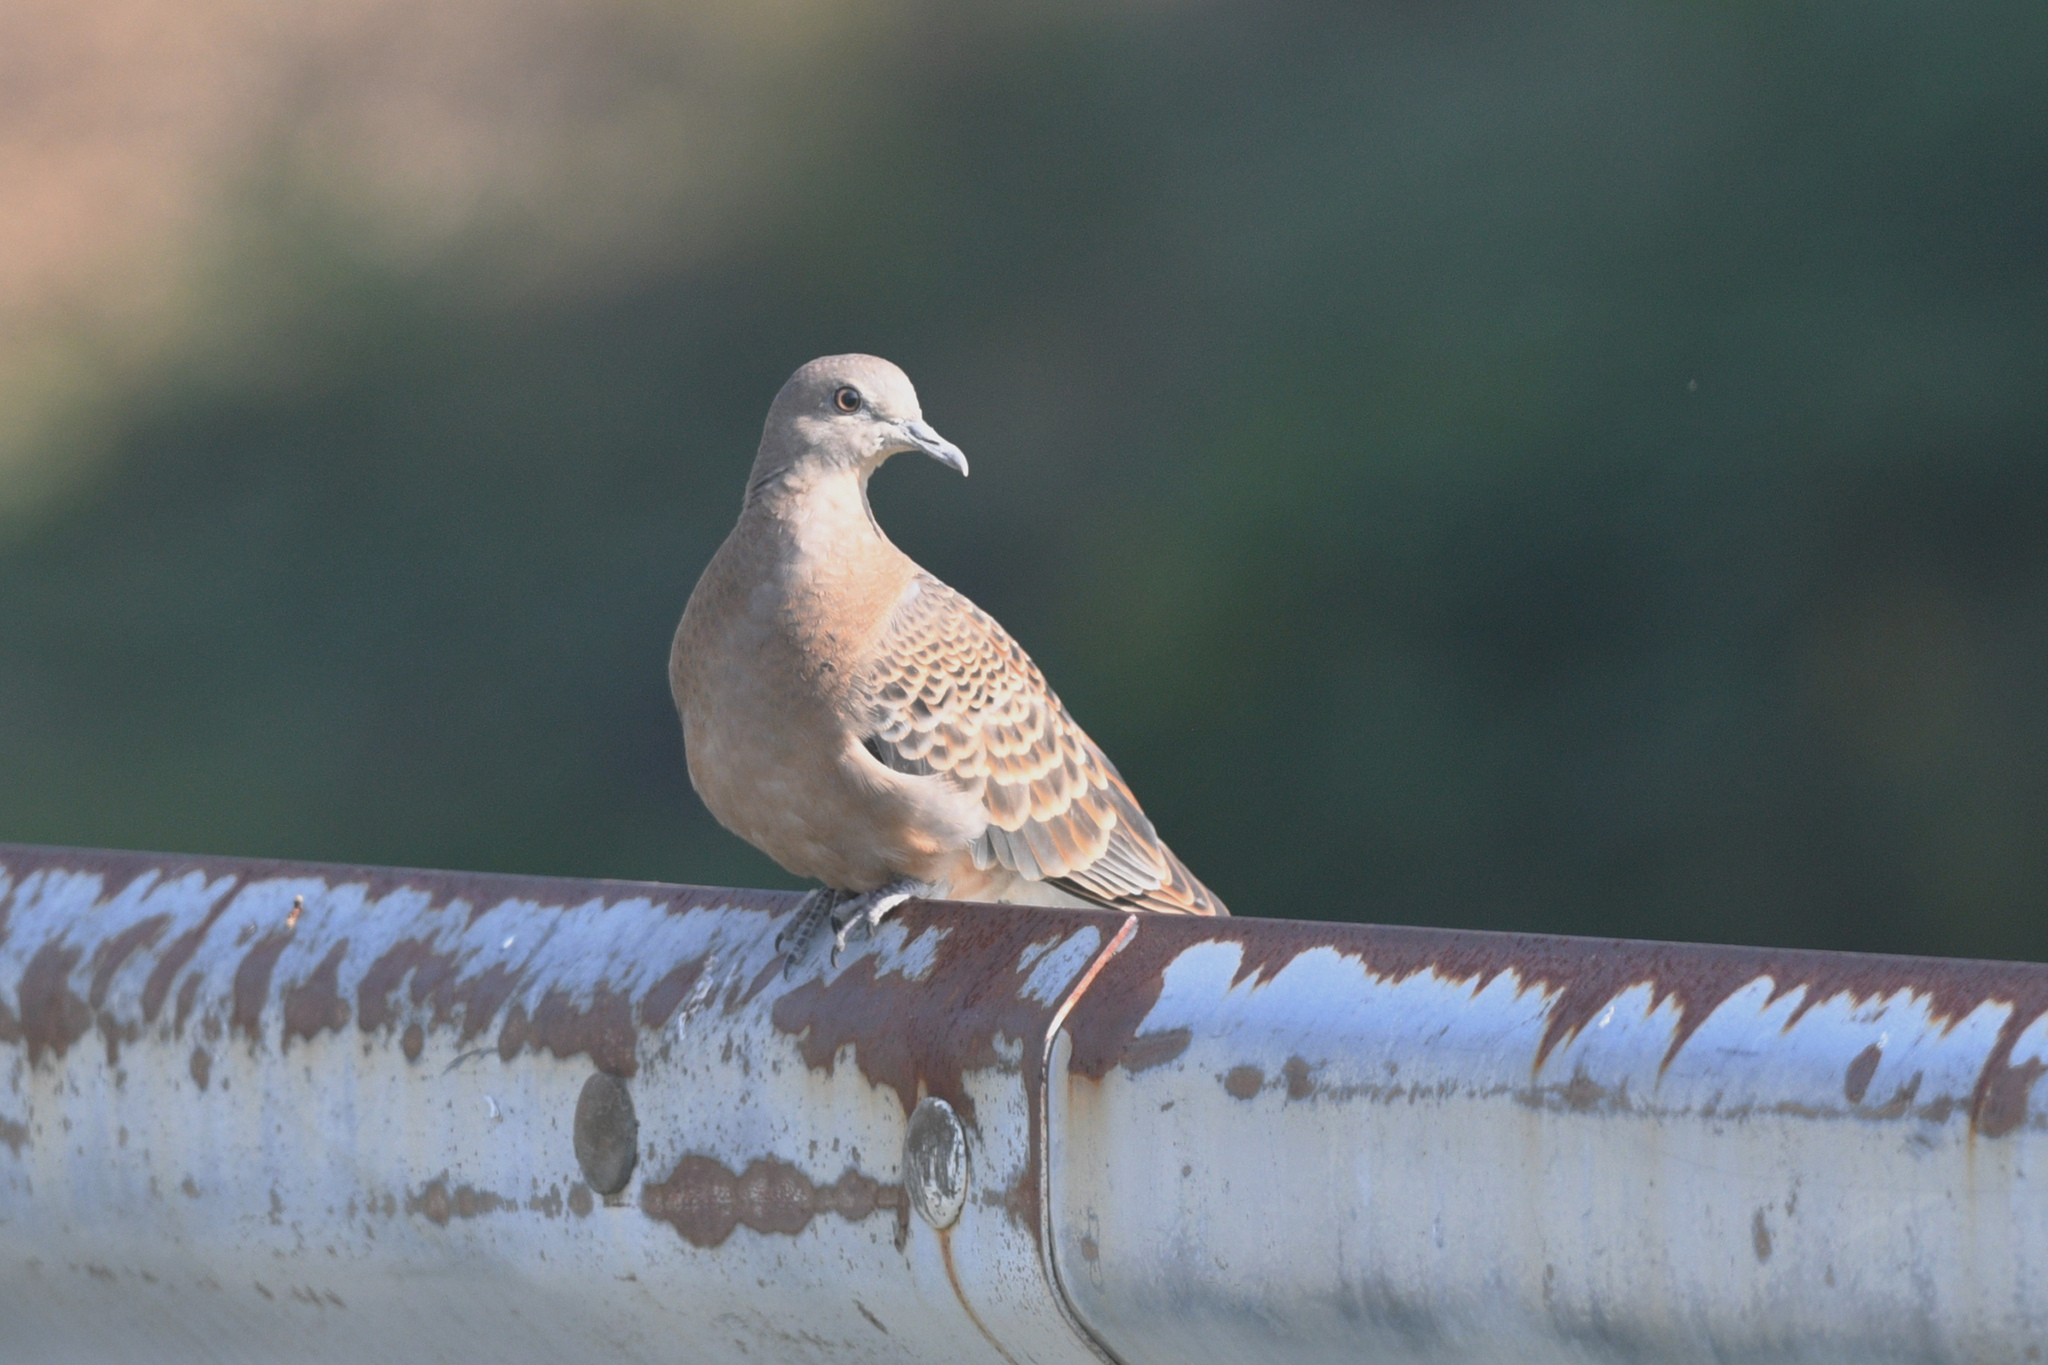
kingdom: Animalia
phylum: Chordata
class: Aves
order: Columbiformes
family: Columbidae
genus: Streptopelia
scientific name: Streptopelia orientalis
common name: Oriental turtle dove
